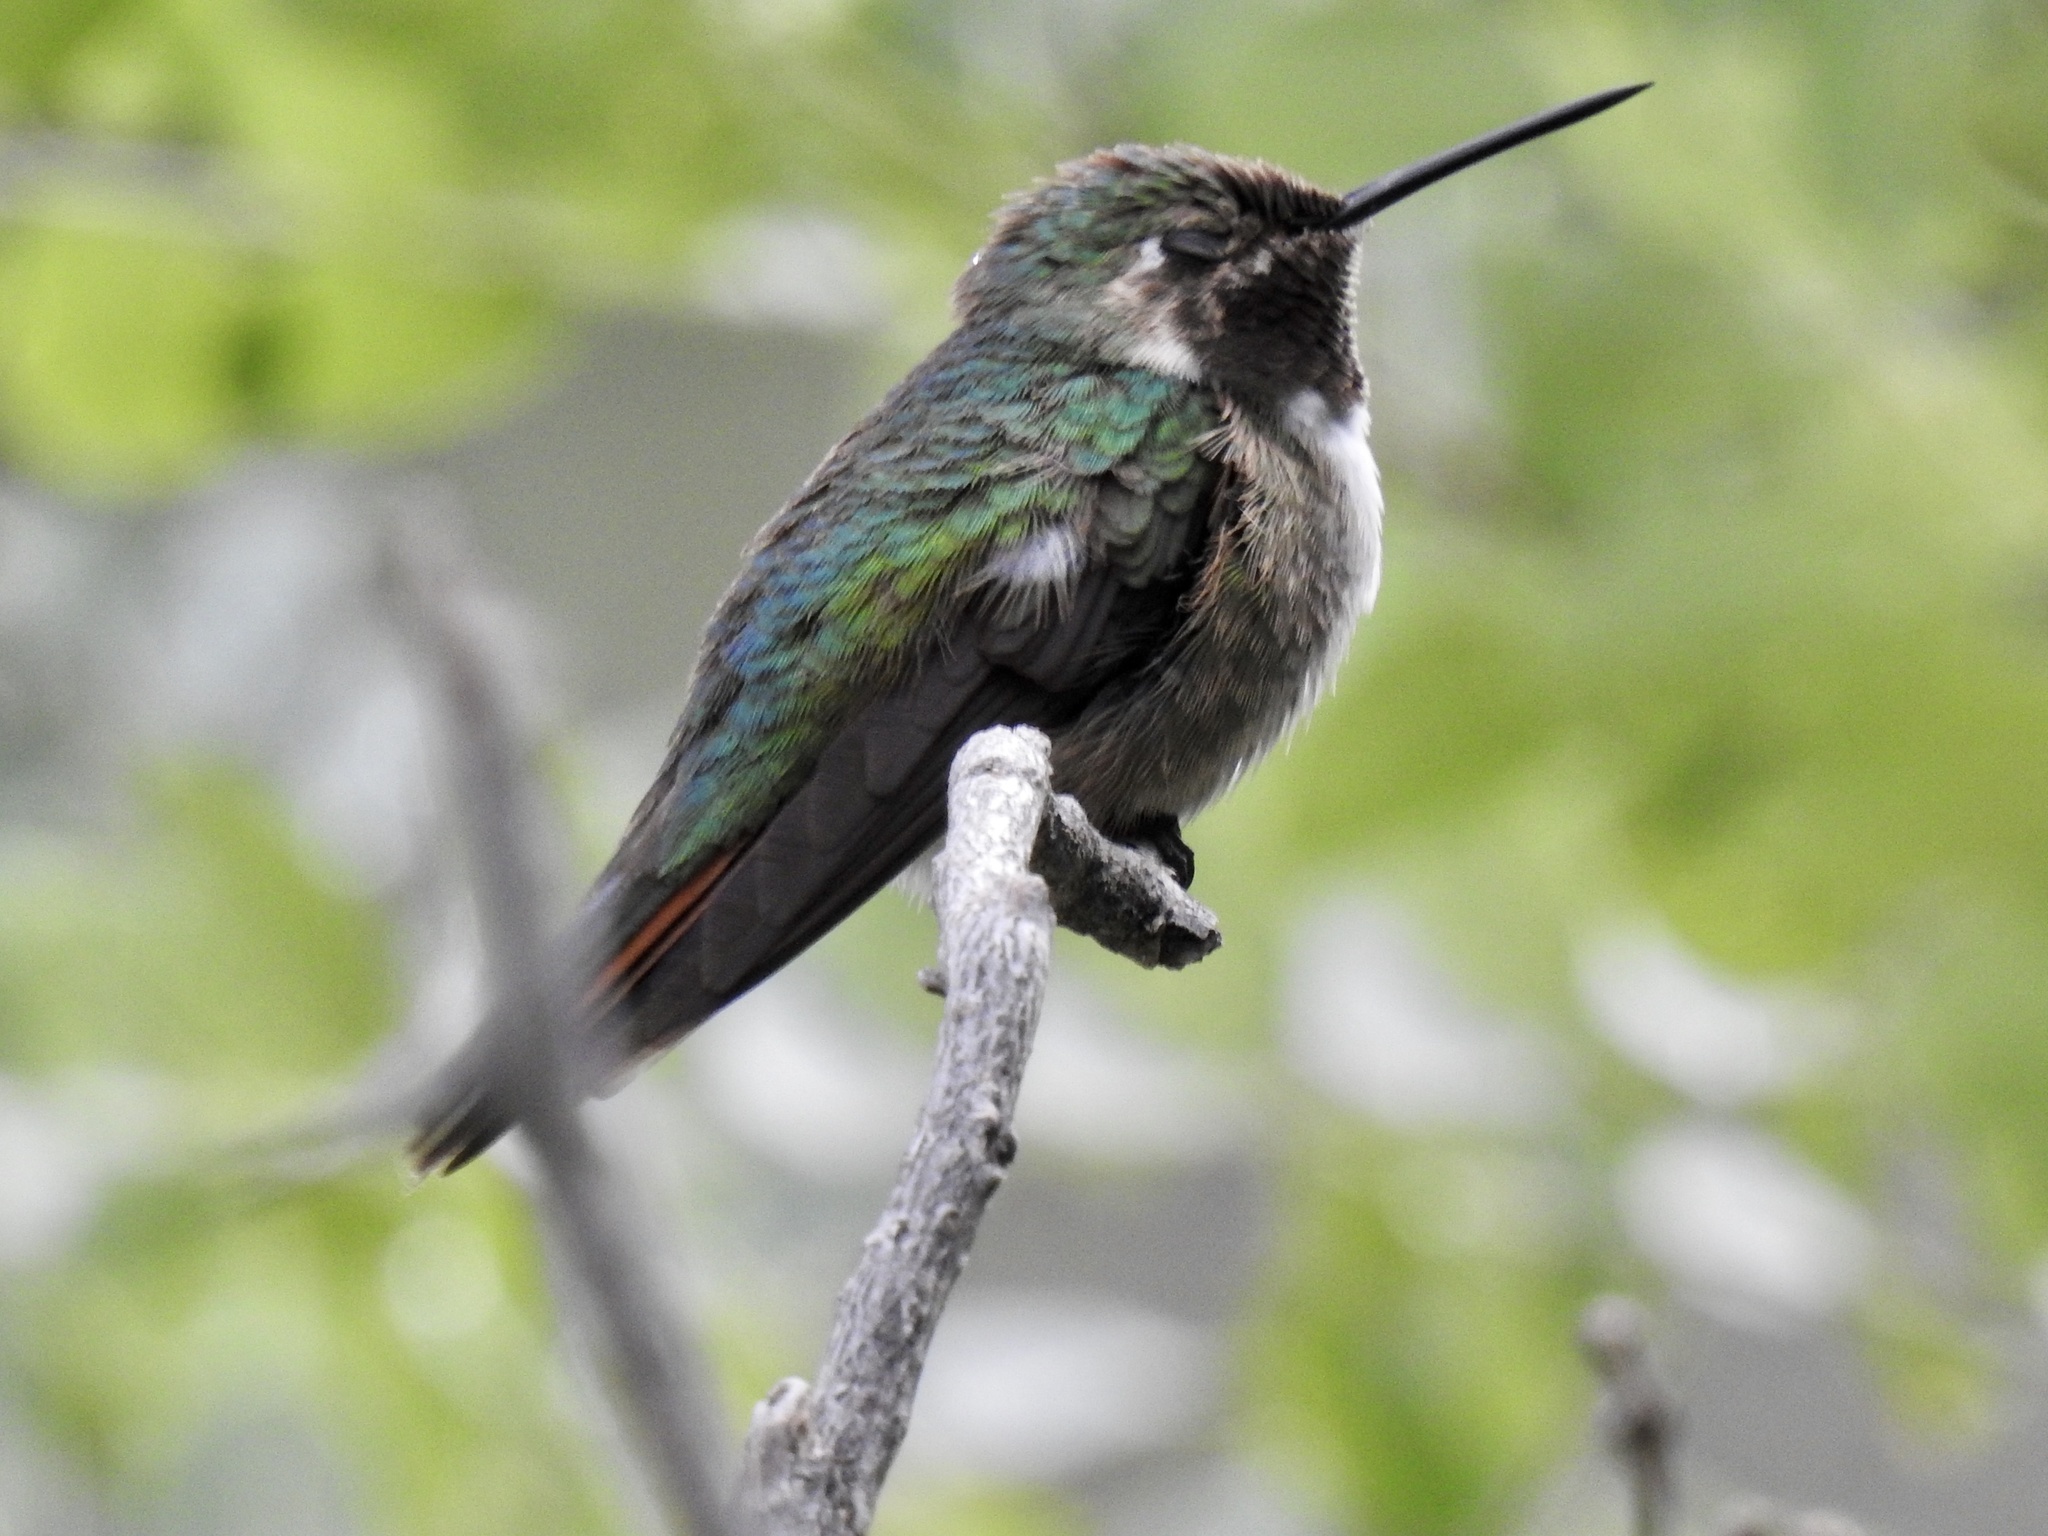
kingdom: Animalia
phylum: Chordata
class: Aves
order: Apodiformes
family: Trochilidae
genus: Selasphorus
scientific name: Selasphorus platycercus
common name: Broad-tailed hummingbird
